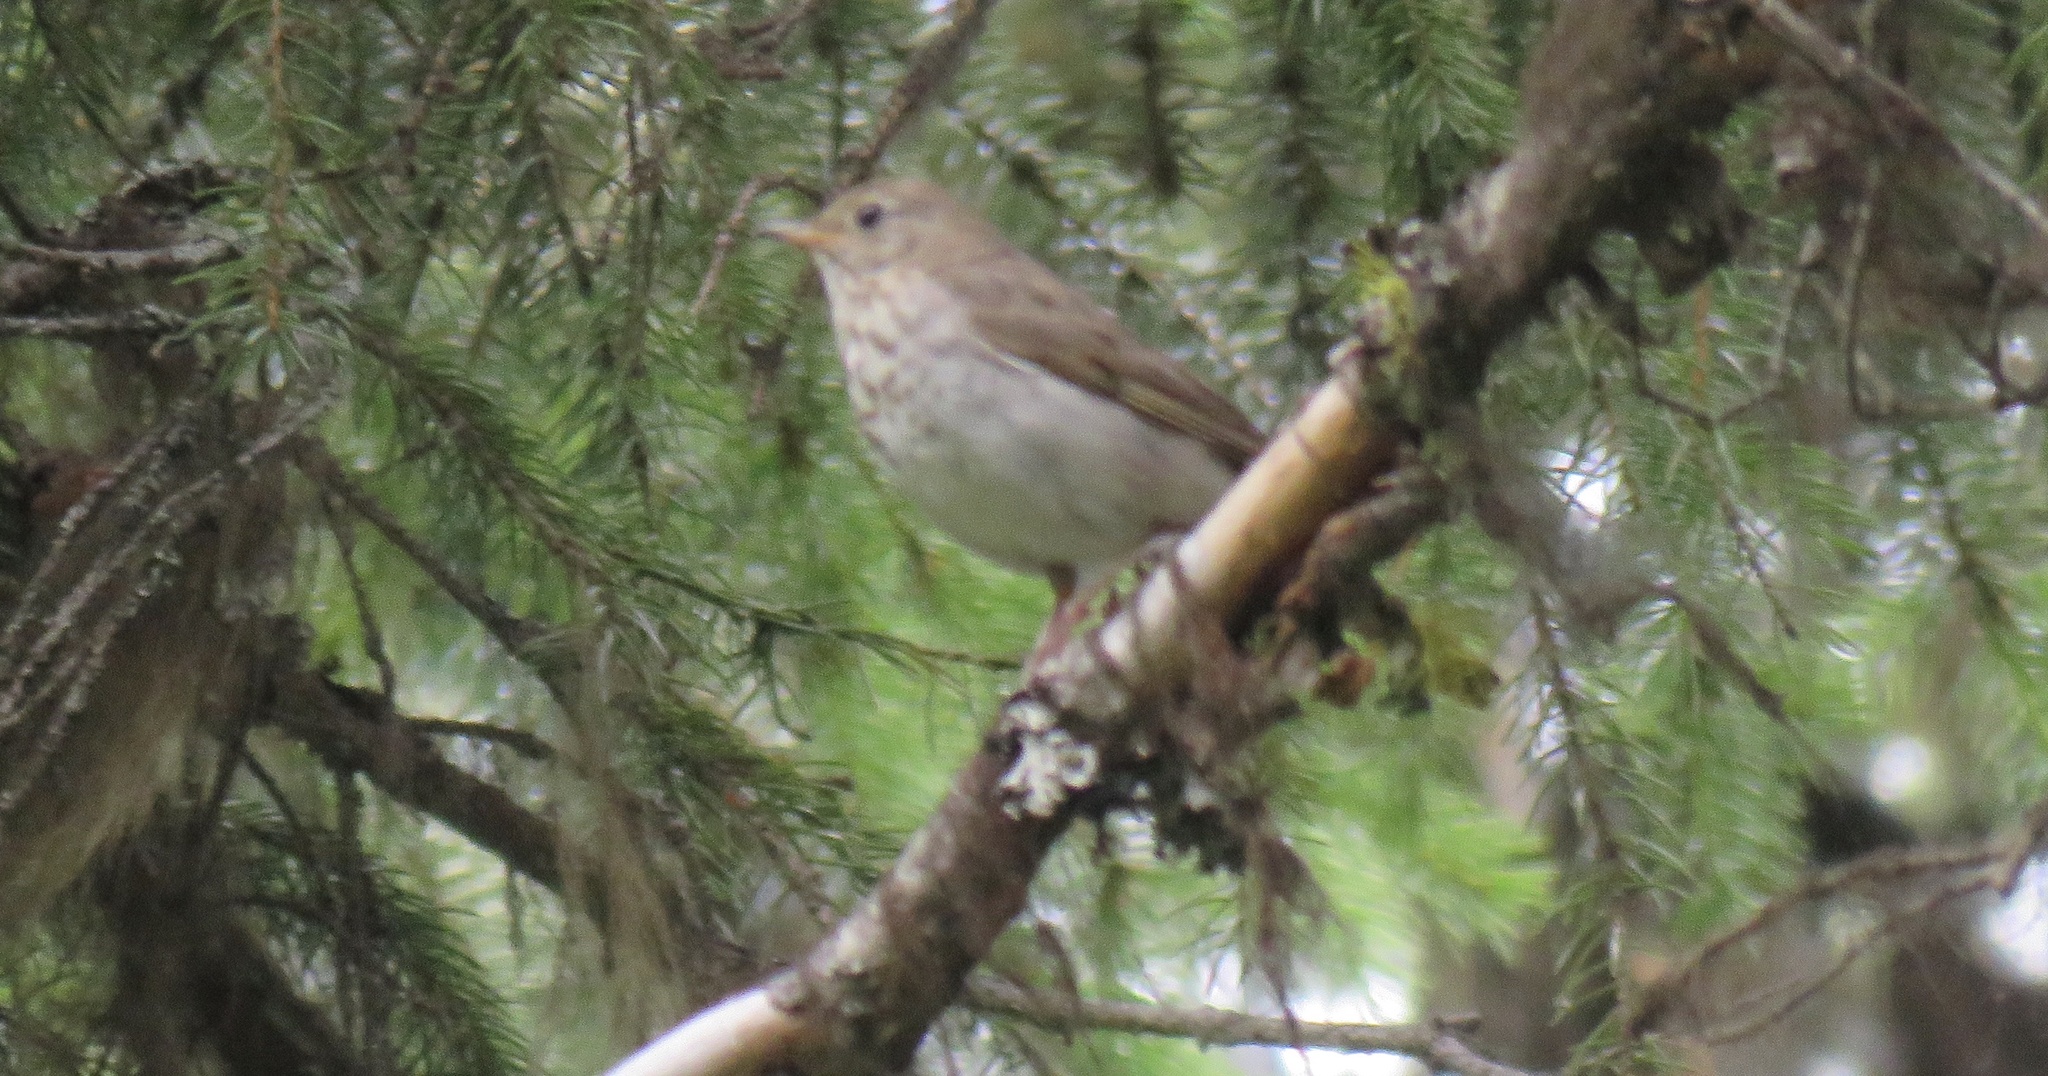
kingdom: Animalia
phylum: Chordata
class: Aves
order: Passeriformes
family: Turdidae
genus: Catharus
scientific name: Catharus ustulatus
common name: Swainson's thrush
